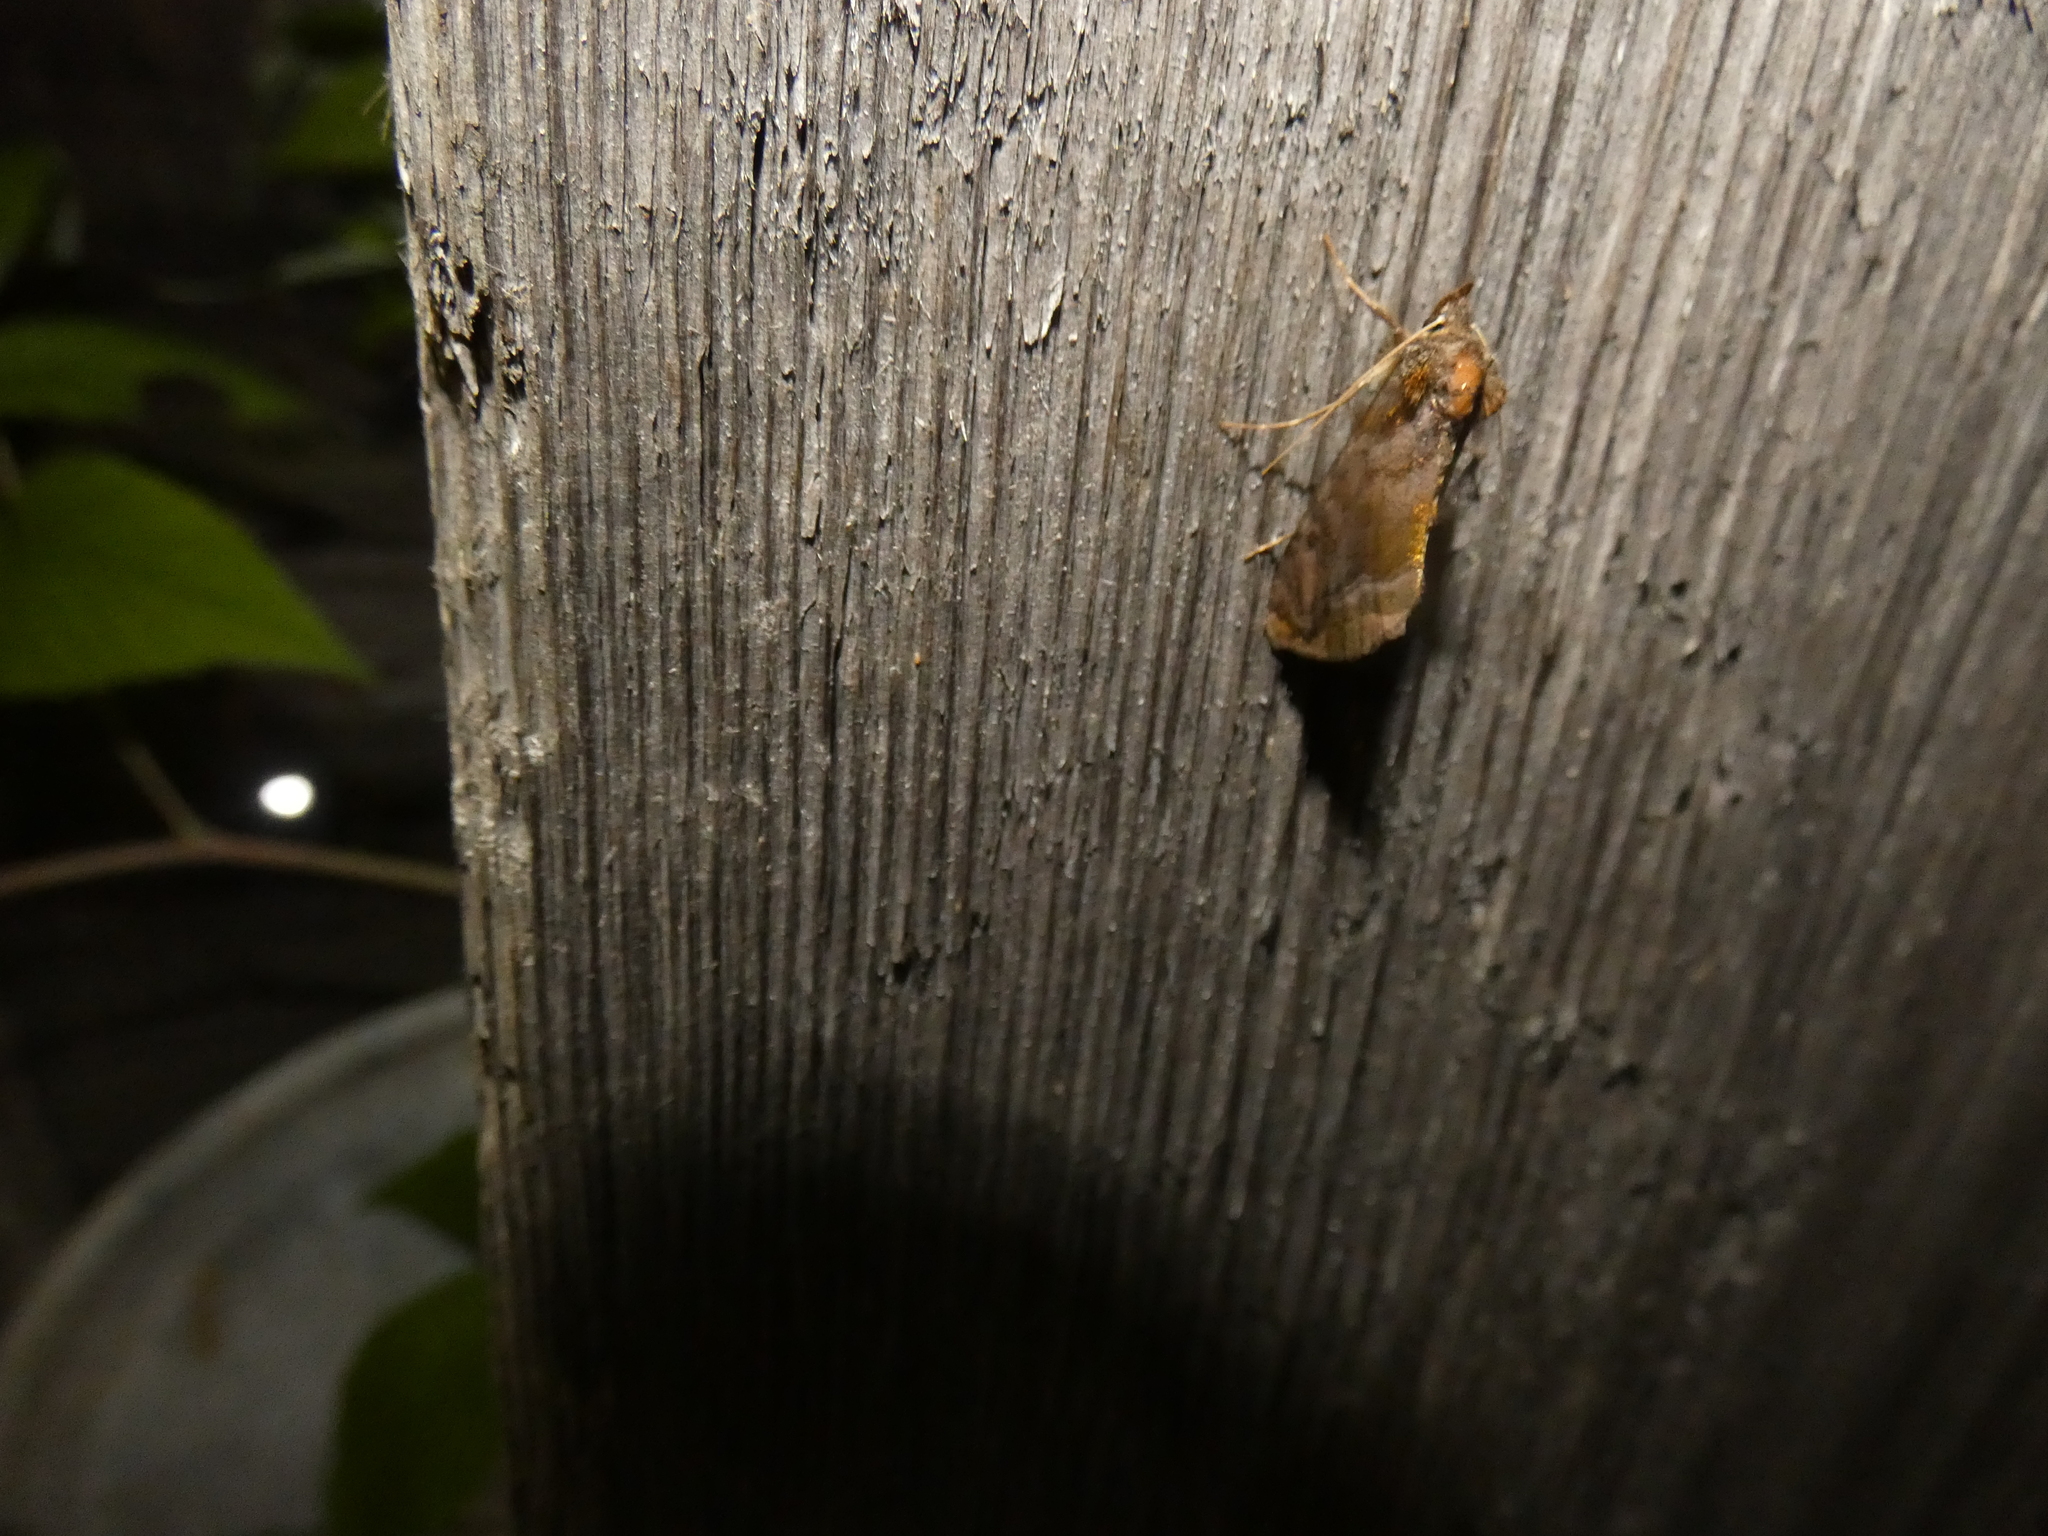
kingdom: Animalia
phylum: Arthropoda
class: Insecta
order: Lepidoptera
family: Noctuidae
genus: Lamprotes
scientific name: Lamprotes caureum
